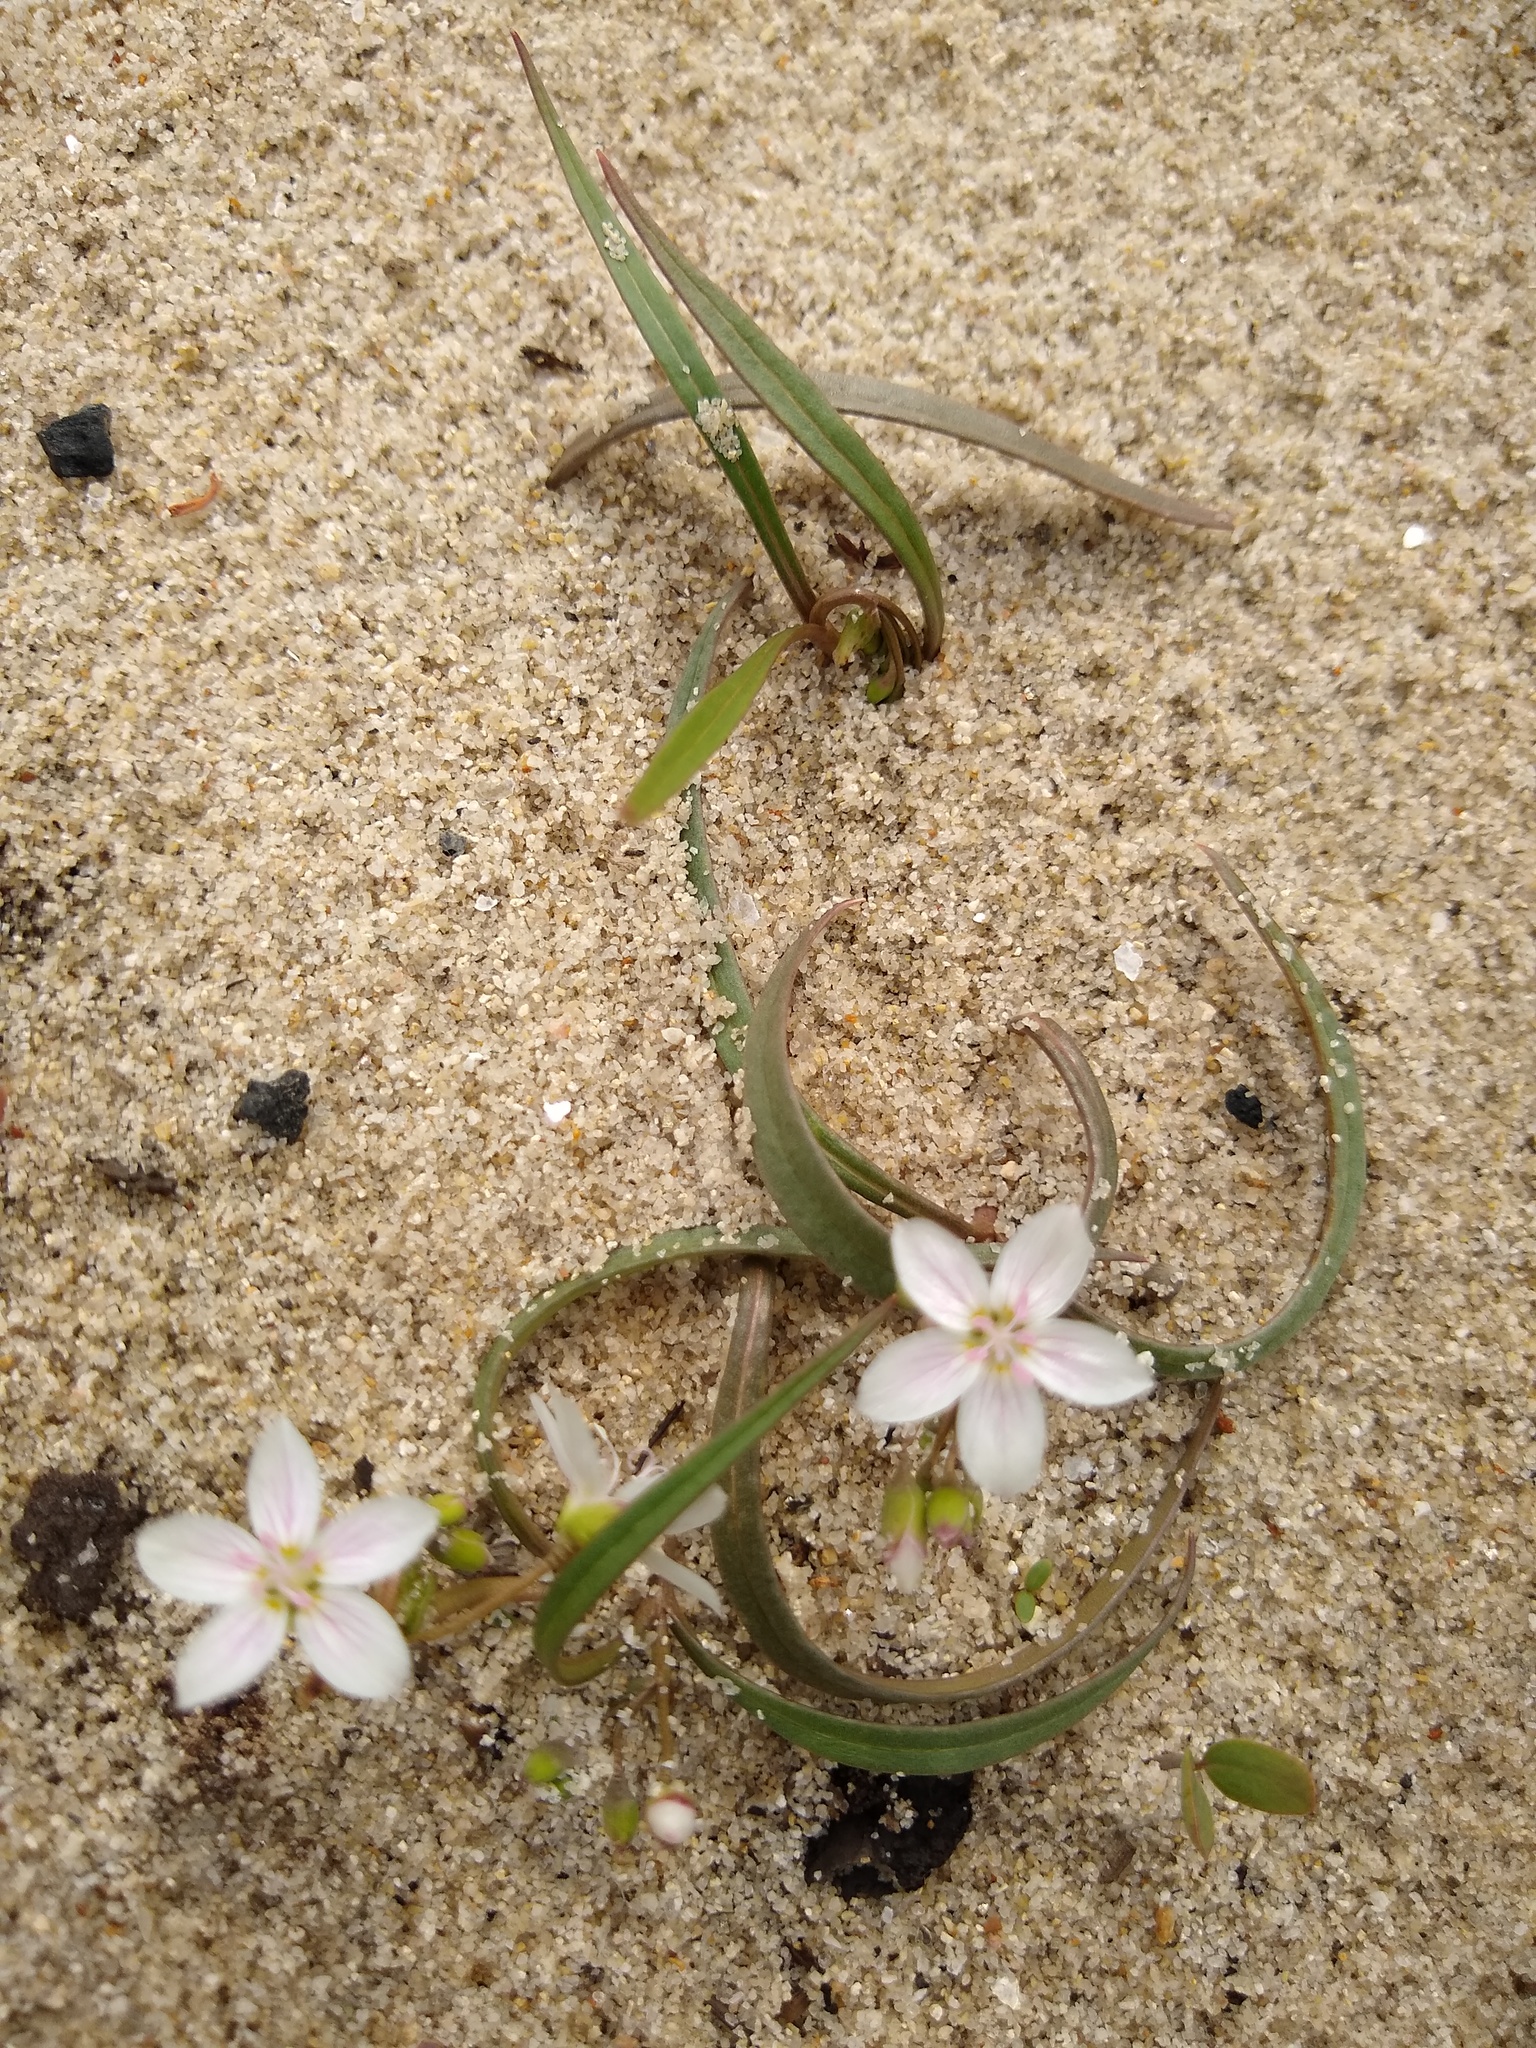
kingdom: Plantae
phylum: Tracheophyta
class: Magnoliopsida
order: Caryophyllales
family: Montiaceae
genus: Claytonia
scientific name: Claytonia virginica
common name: Virginia springbeauty
